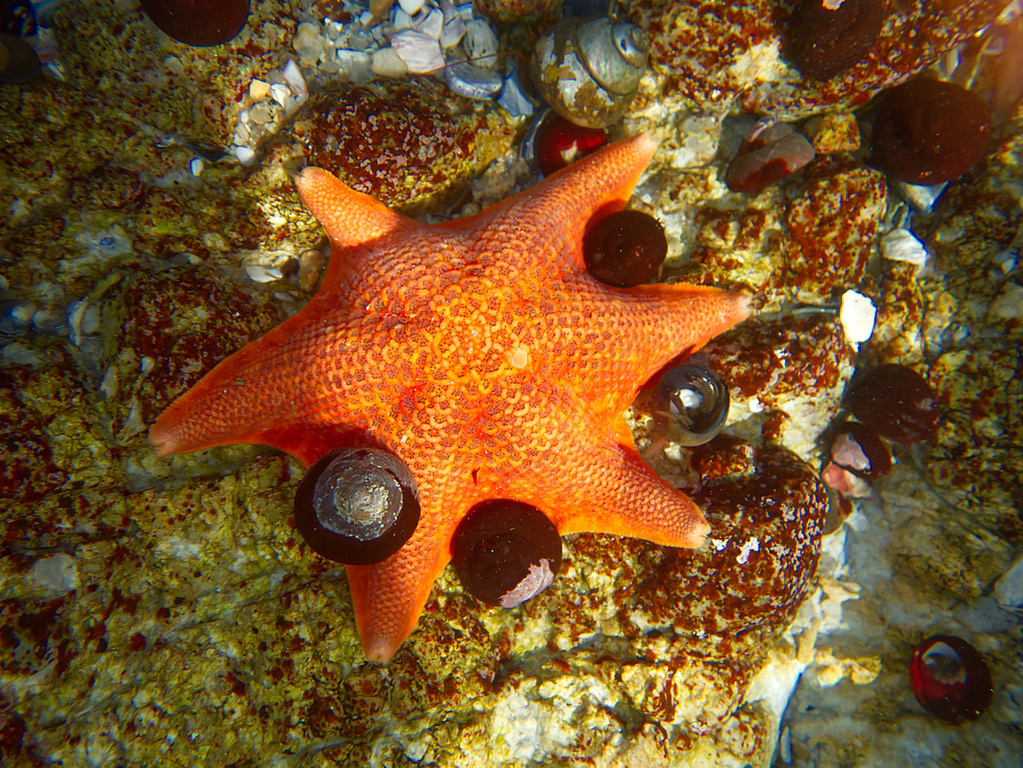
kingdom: Animalia
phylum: Echinodermata
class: Asteroidea
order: Valvatida
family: Asterinidae
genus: Patiria
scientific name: Patiria miniata
